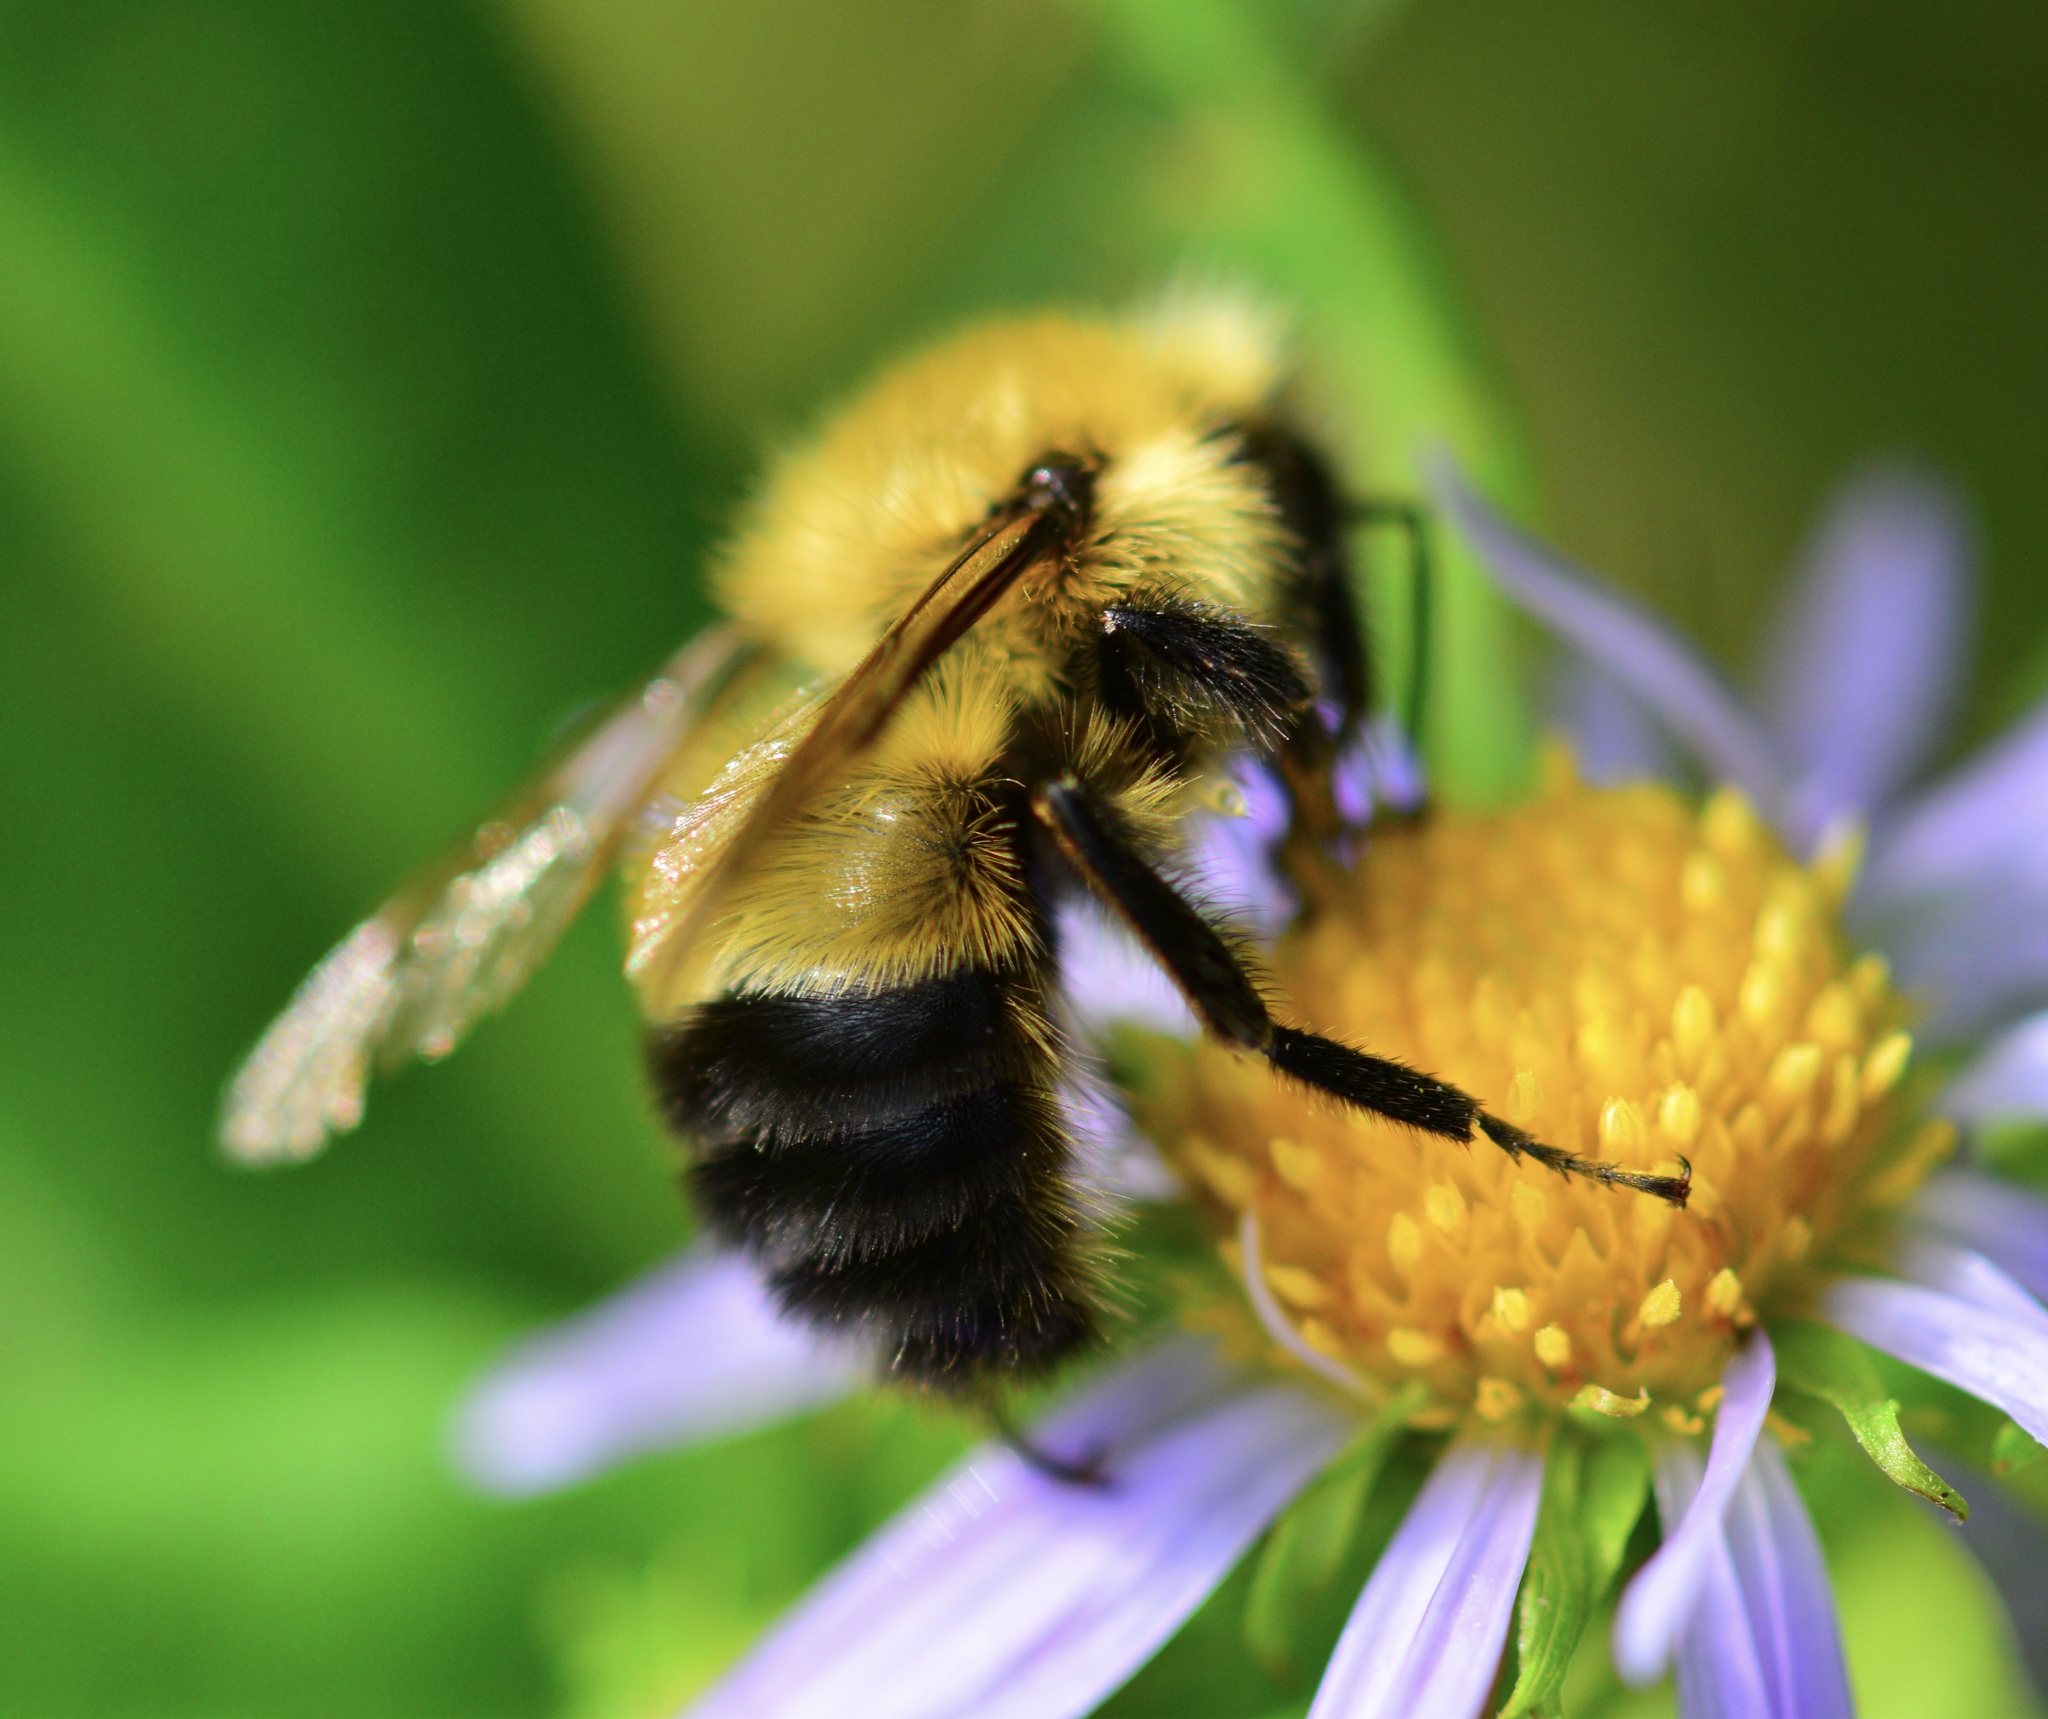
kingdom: Animalia
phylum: Arthropoda
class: Insecta
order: Hymenoptera
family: Apidae
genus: Pyrobombus
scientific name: Pyrobombus
